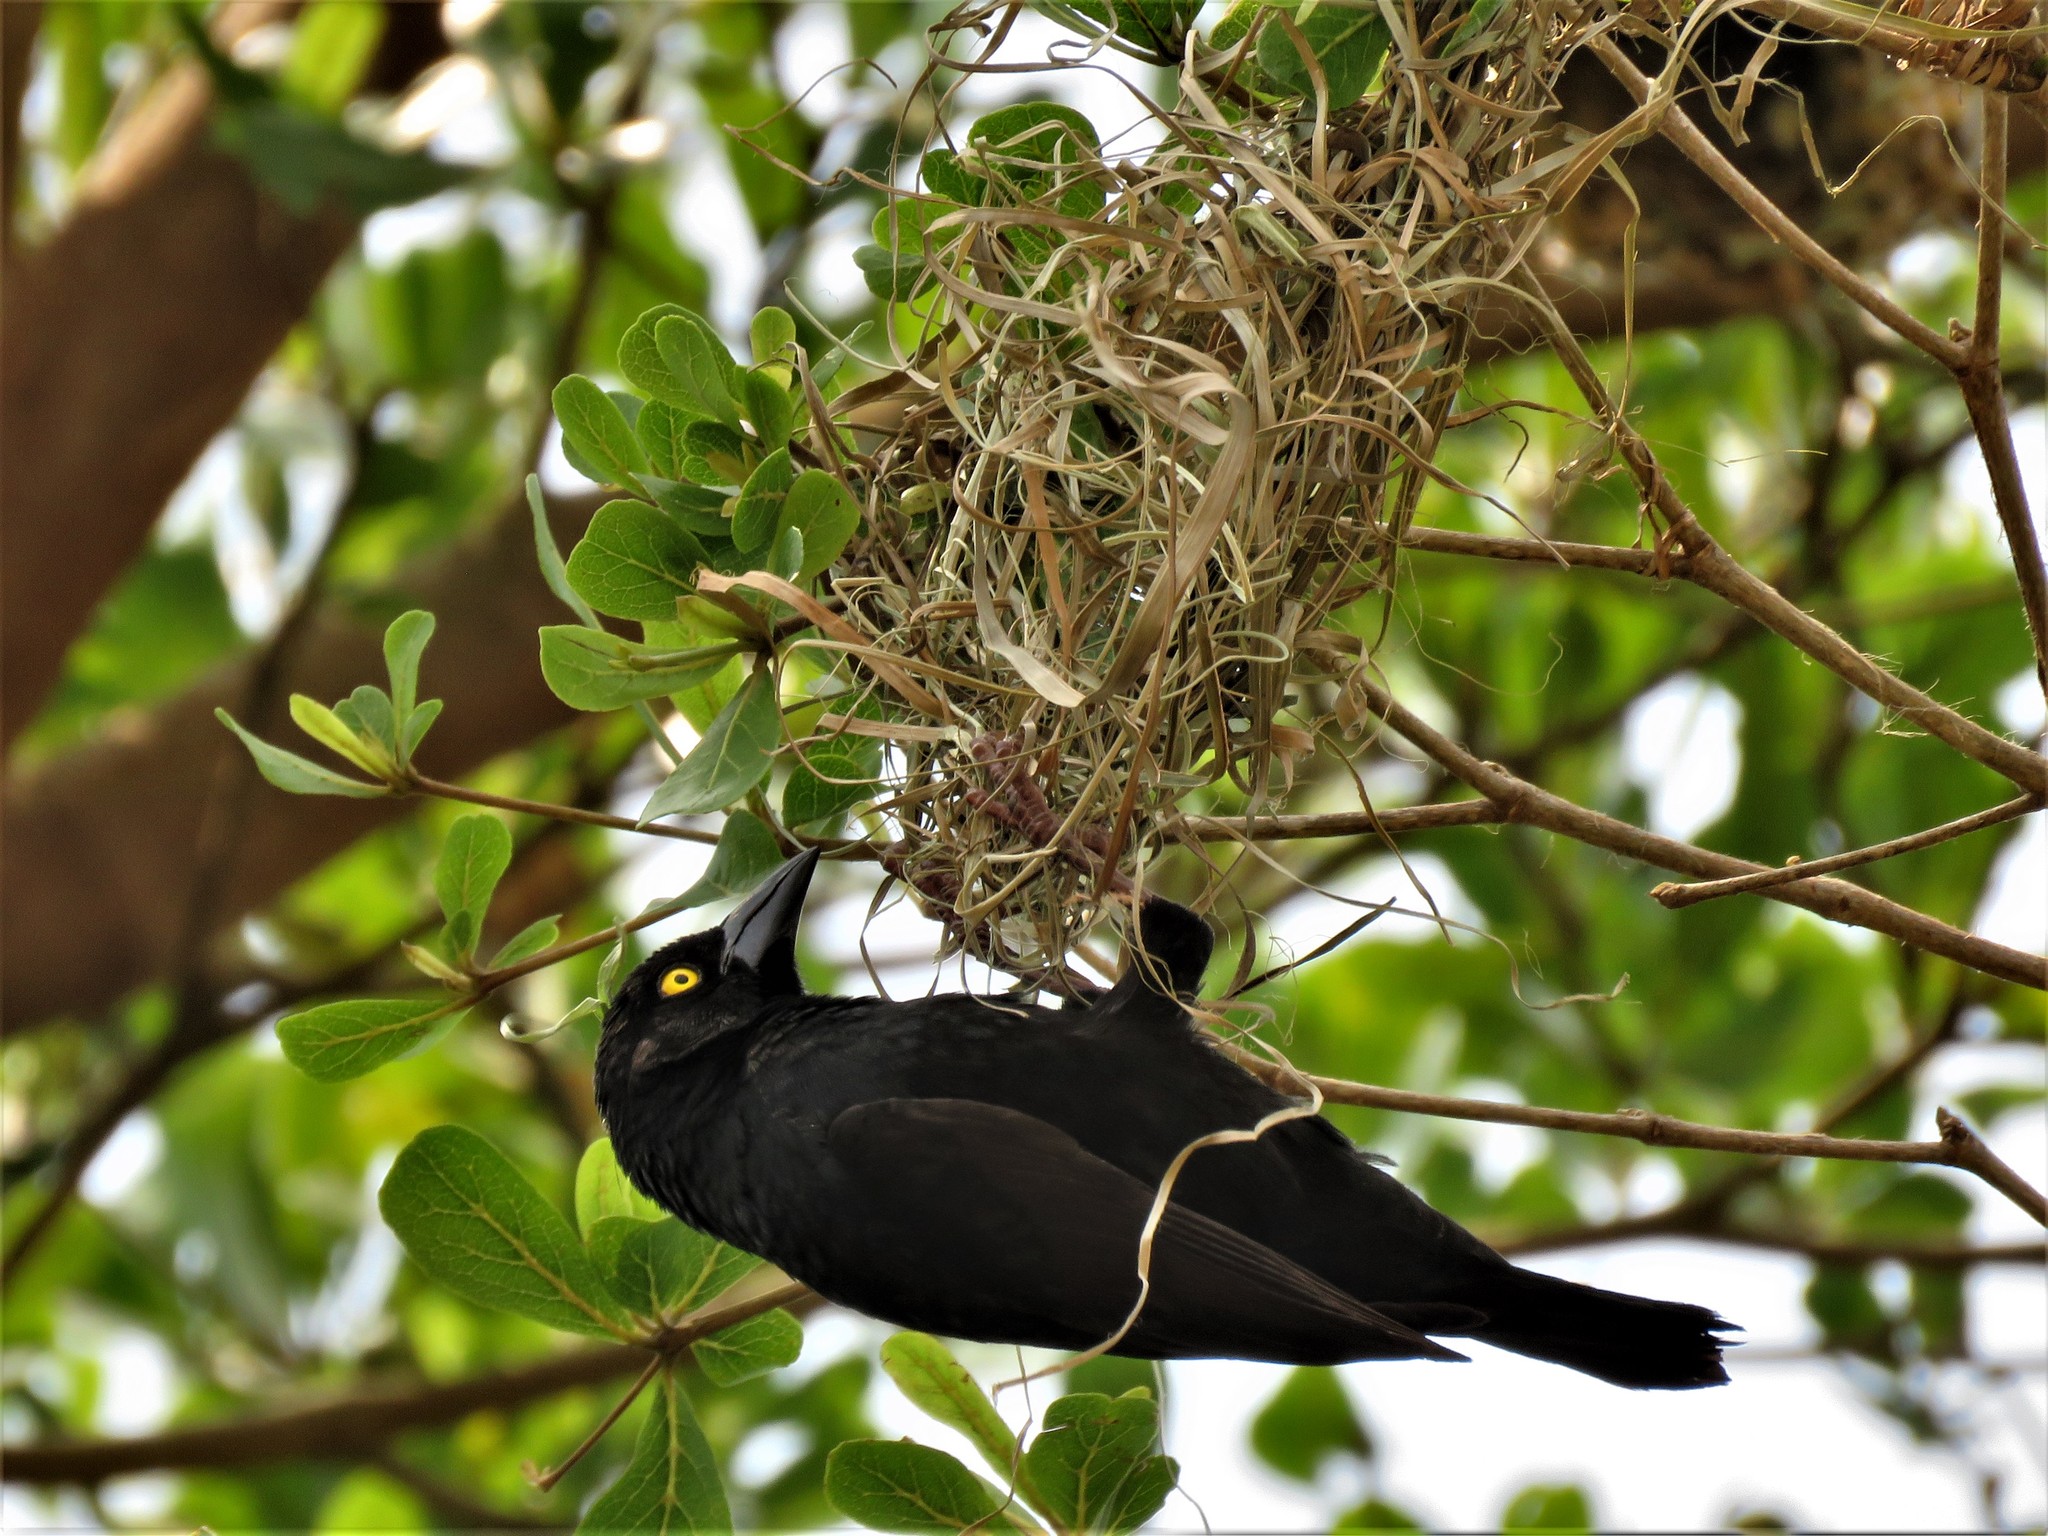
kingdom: Animalia
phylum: Chordata
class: Aves
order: Passeriformes
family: Ploceidae
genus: Ploceus
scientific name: Ploceus nigerrimus
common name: Vieillot's black weaver
